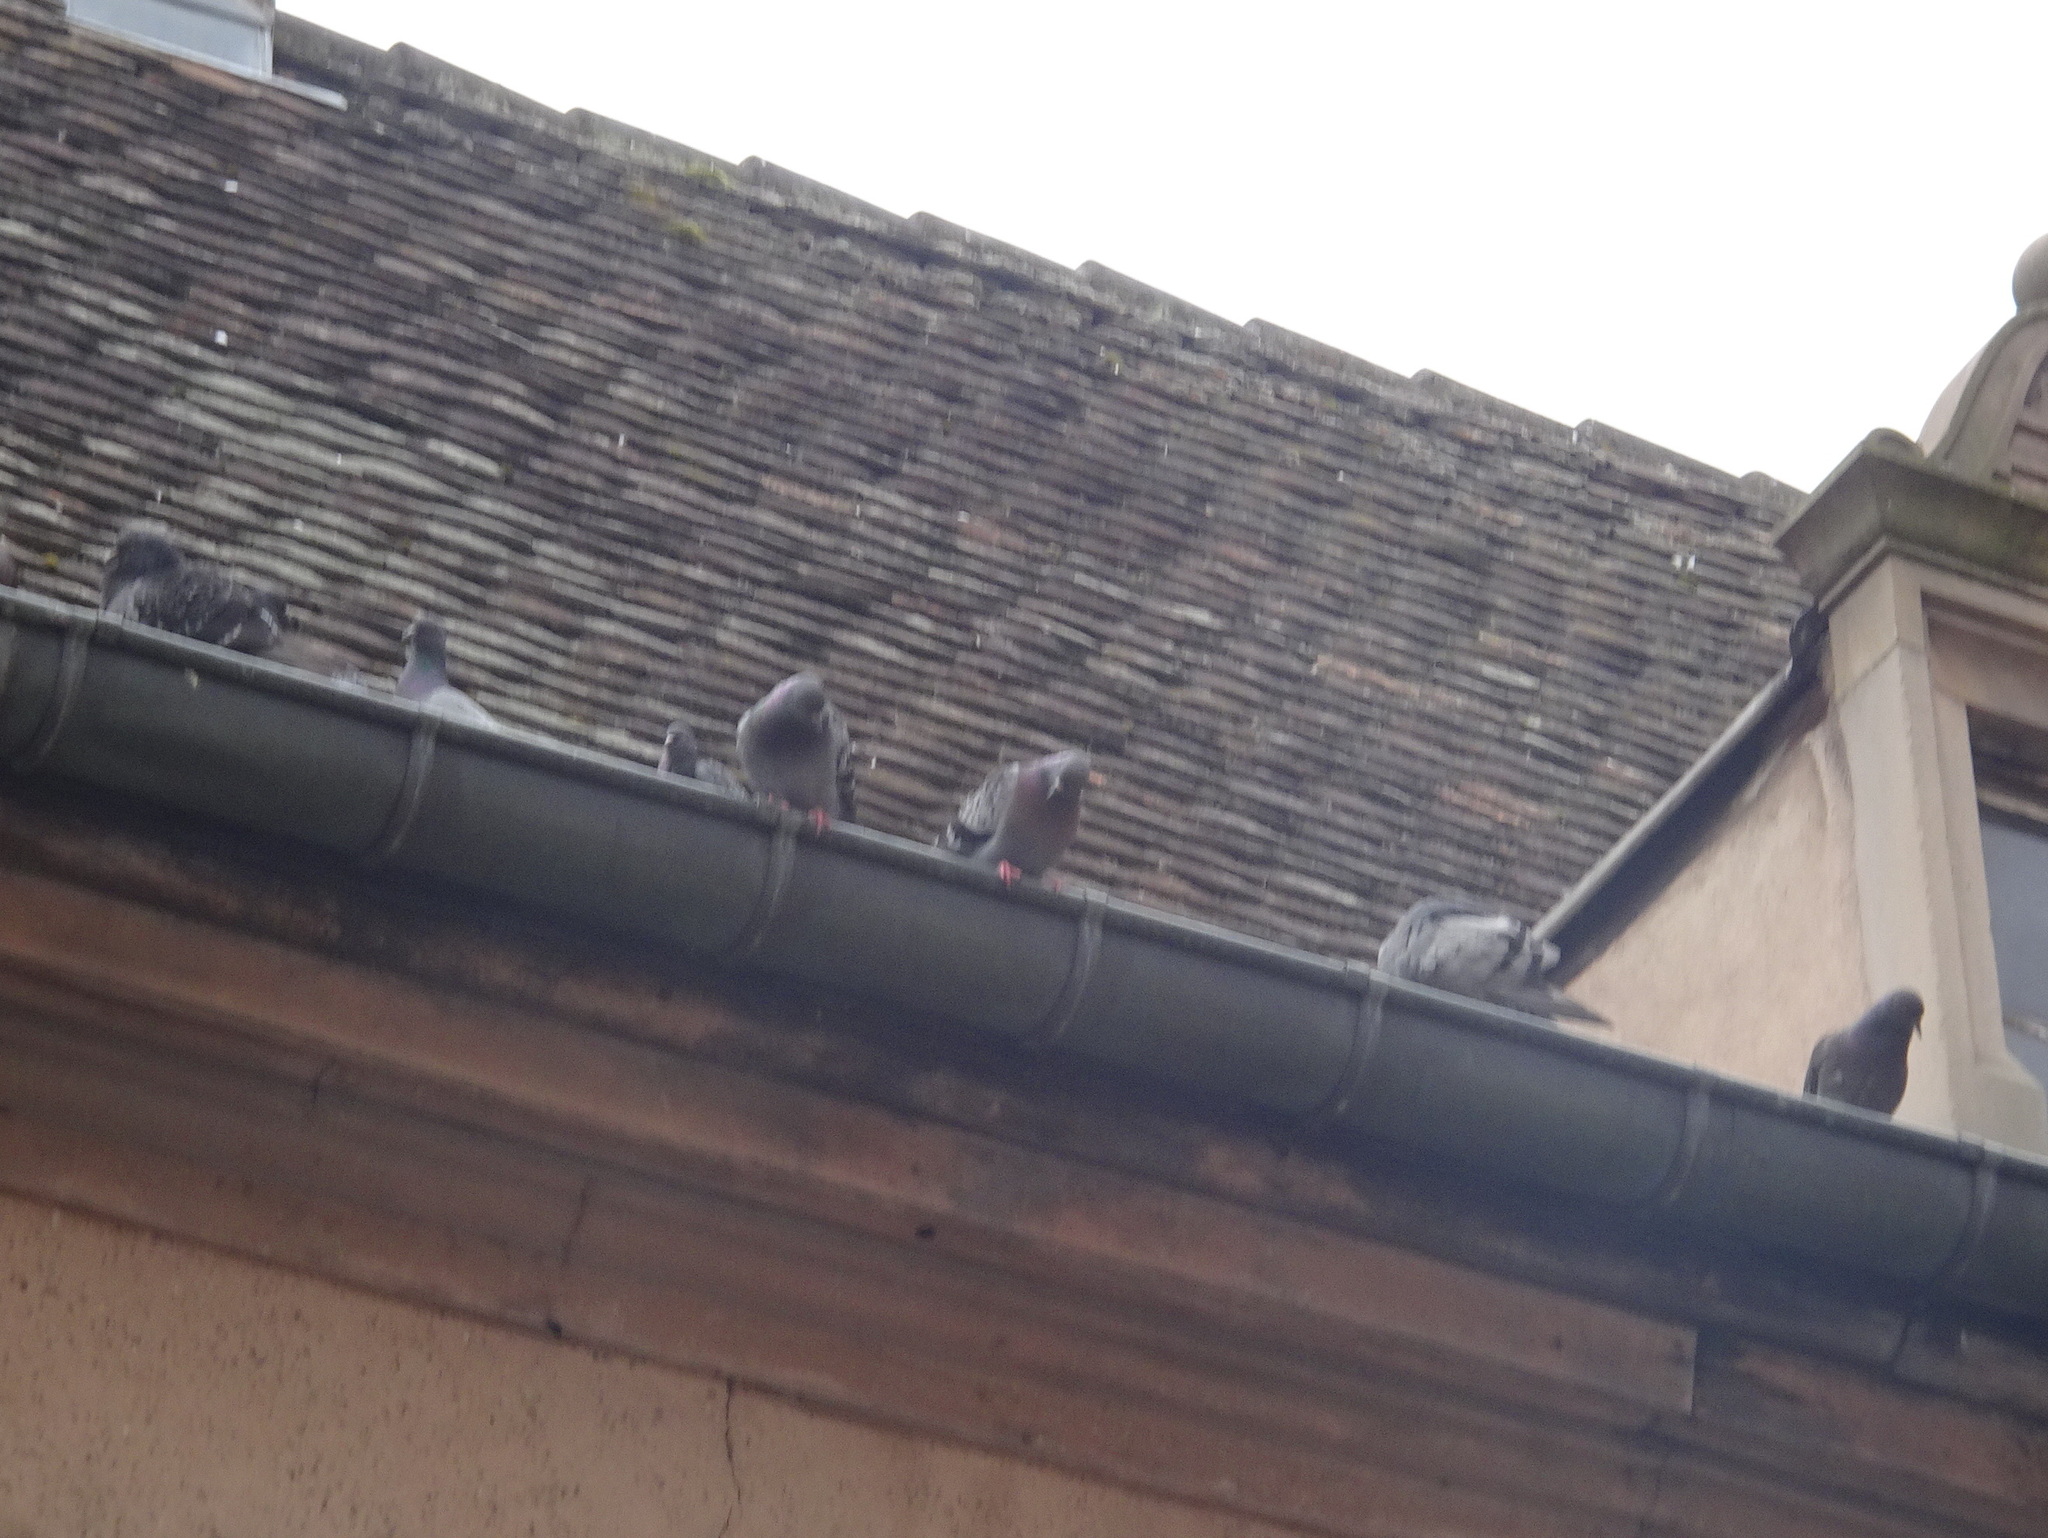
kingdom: Animalia
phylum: Chordata
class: Aves
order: Columbiformes
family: Columbidae
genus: Columba
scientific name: Columba livia
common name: Rock pigeon
